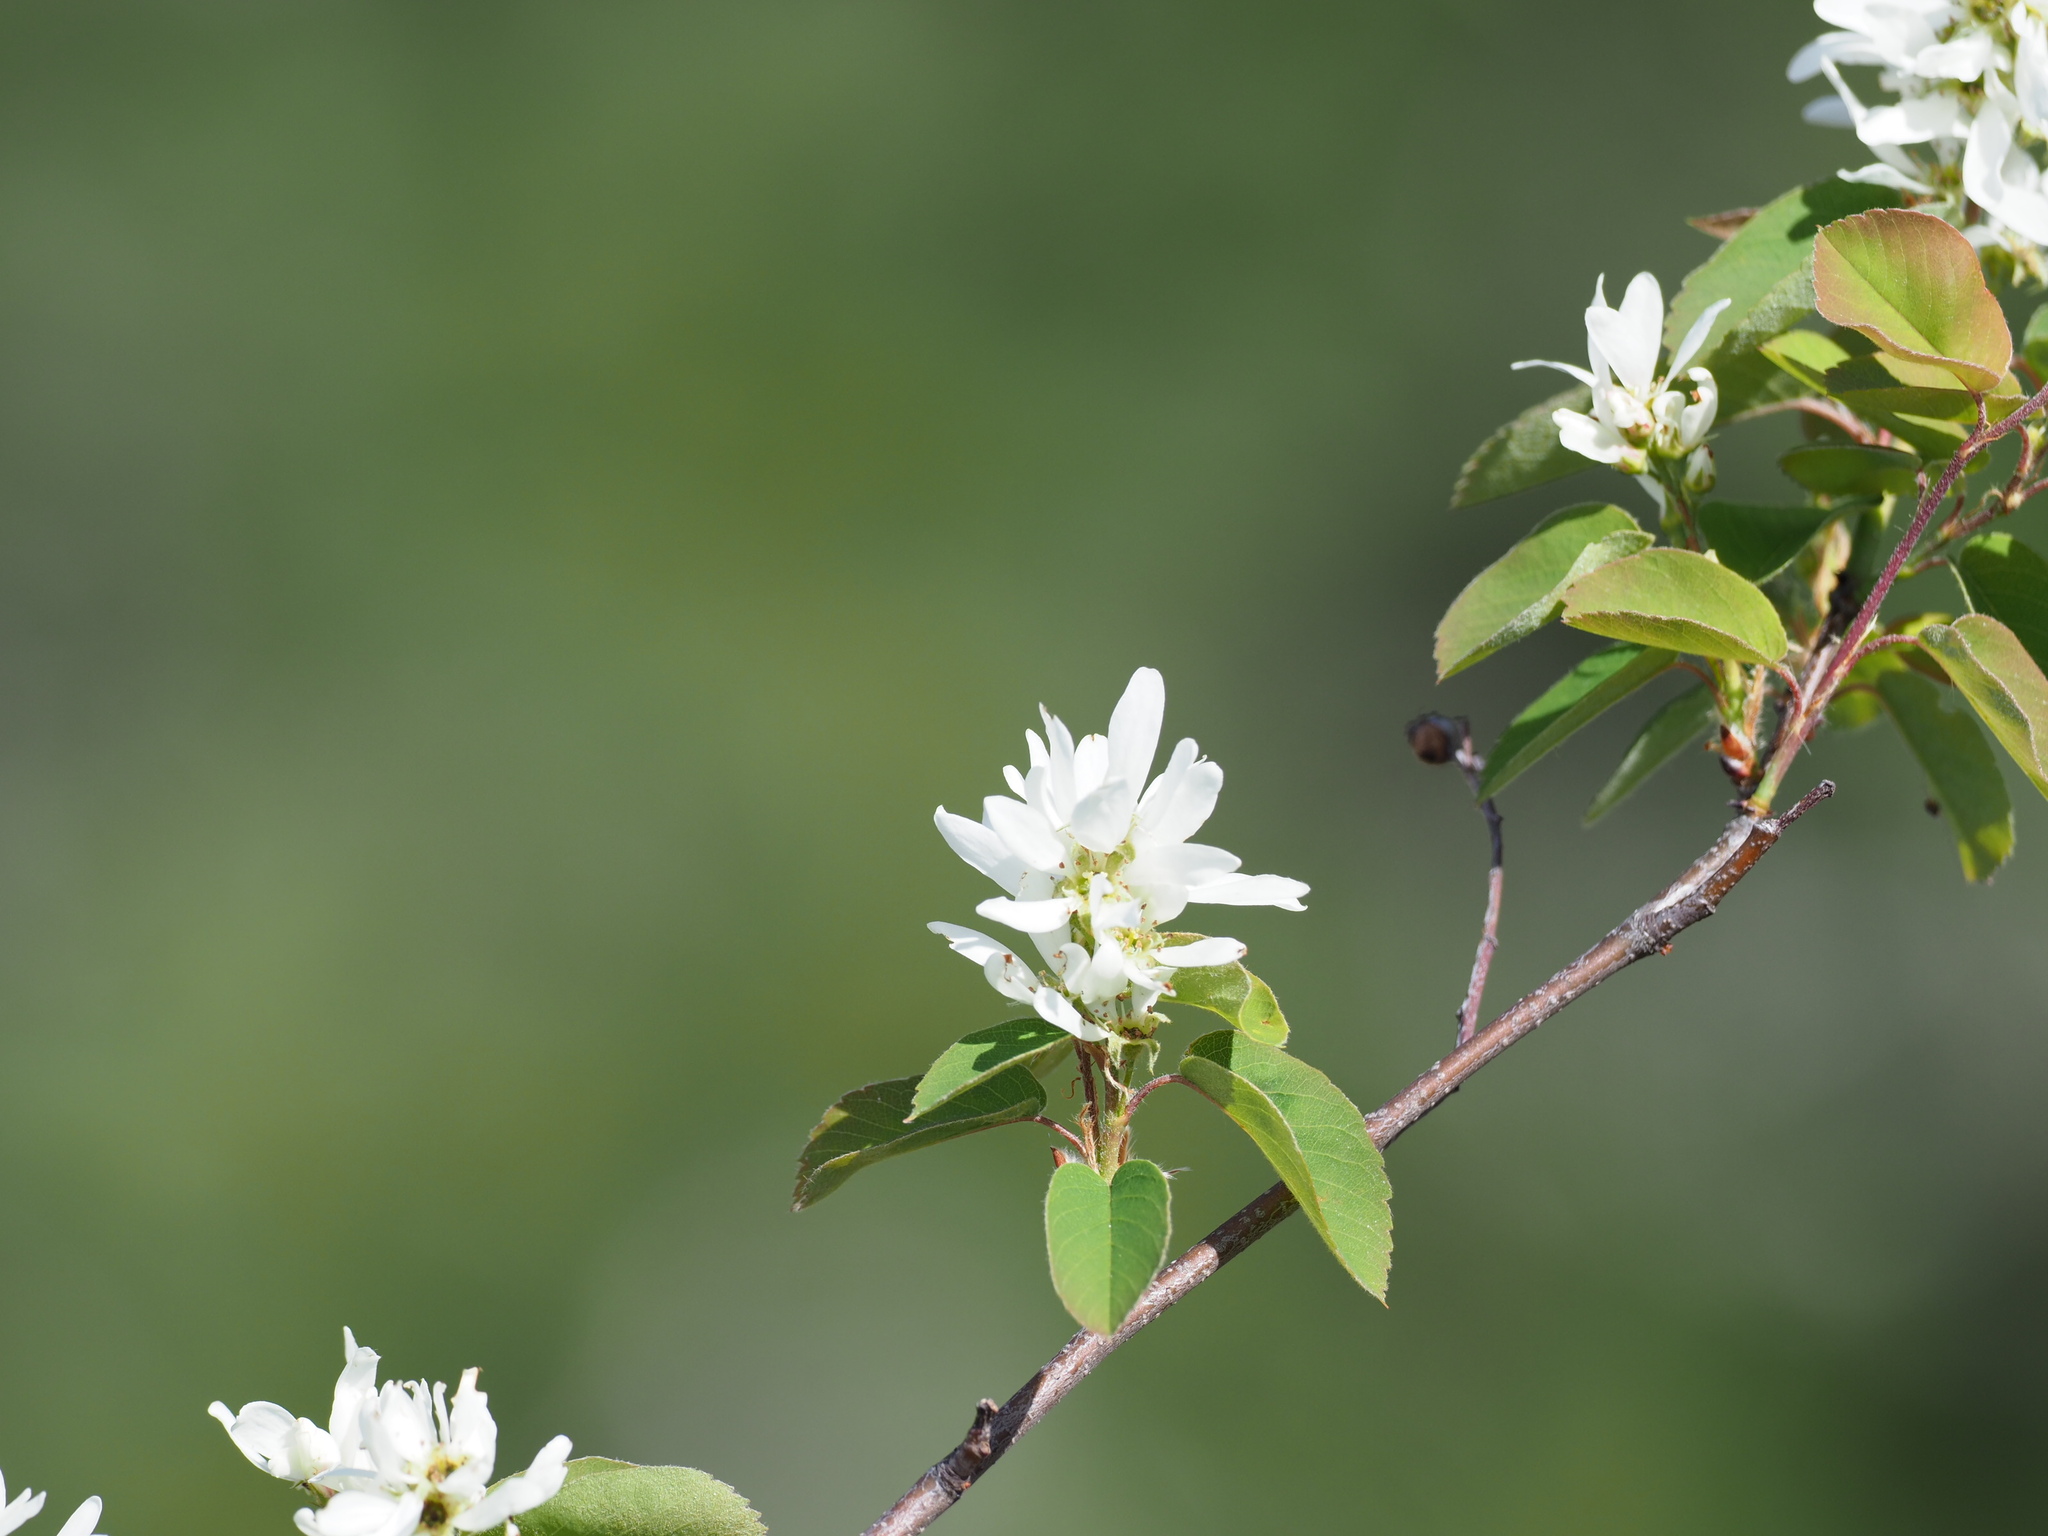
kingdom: Plantae
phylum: Tracheophyta
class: Magnoliopsida
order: Rosales
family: Rosaceae
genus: Amelanchier
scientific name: Amelanchier alnifolia
